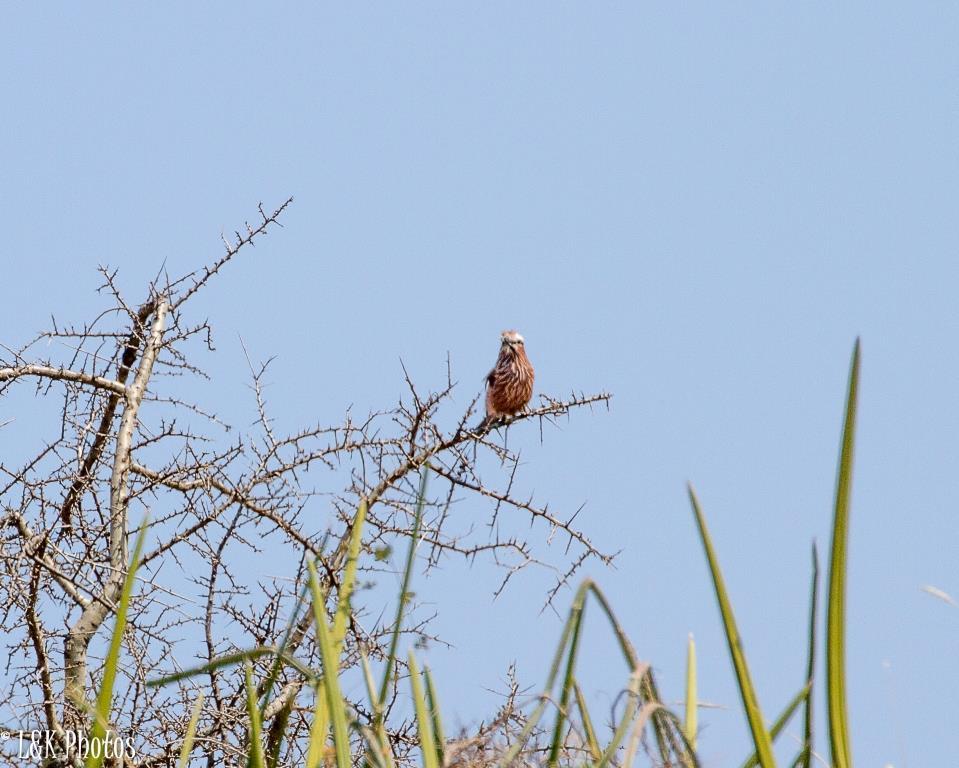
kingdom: Animalia
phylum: Chordata
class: Aves
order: Coraciiformes
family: Coraciidae
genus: Coracias
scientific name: Coracias naevius
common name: Purple roller
